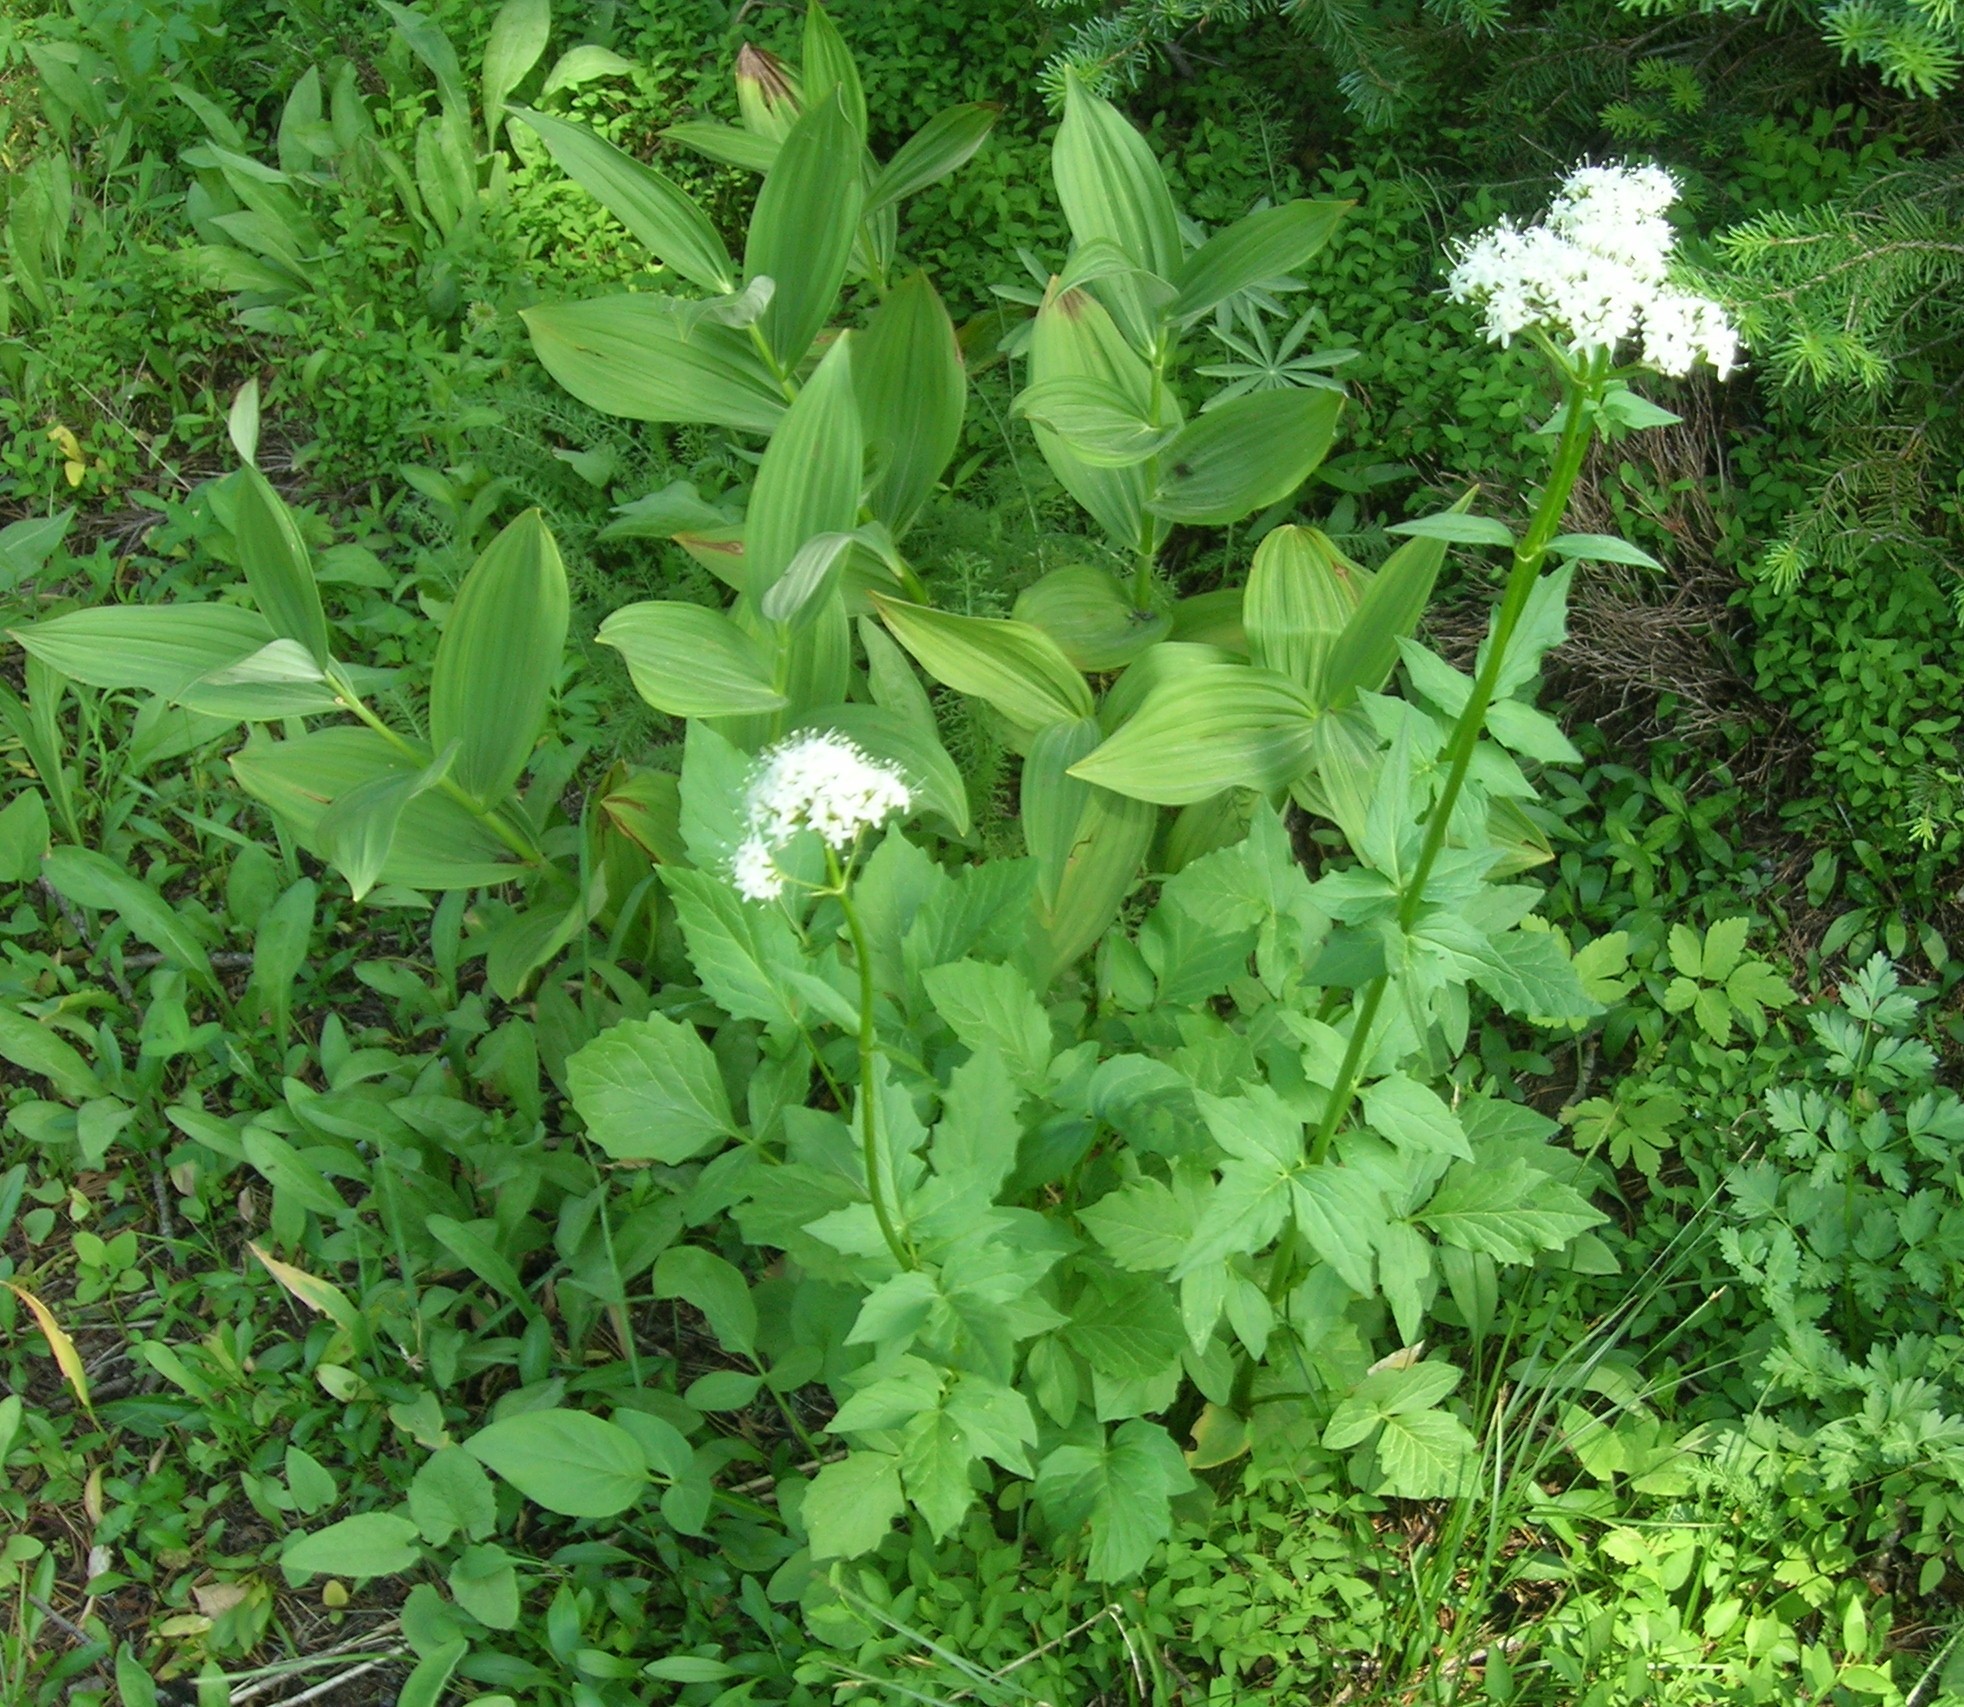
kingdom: Plantae
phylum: Tracheophyta
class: Magnoliopsida
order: Dipsacales
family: Caprifoliaceae
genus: Valeriana
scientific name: Valeriana sitchensis
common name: Pacific valerian
